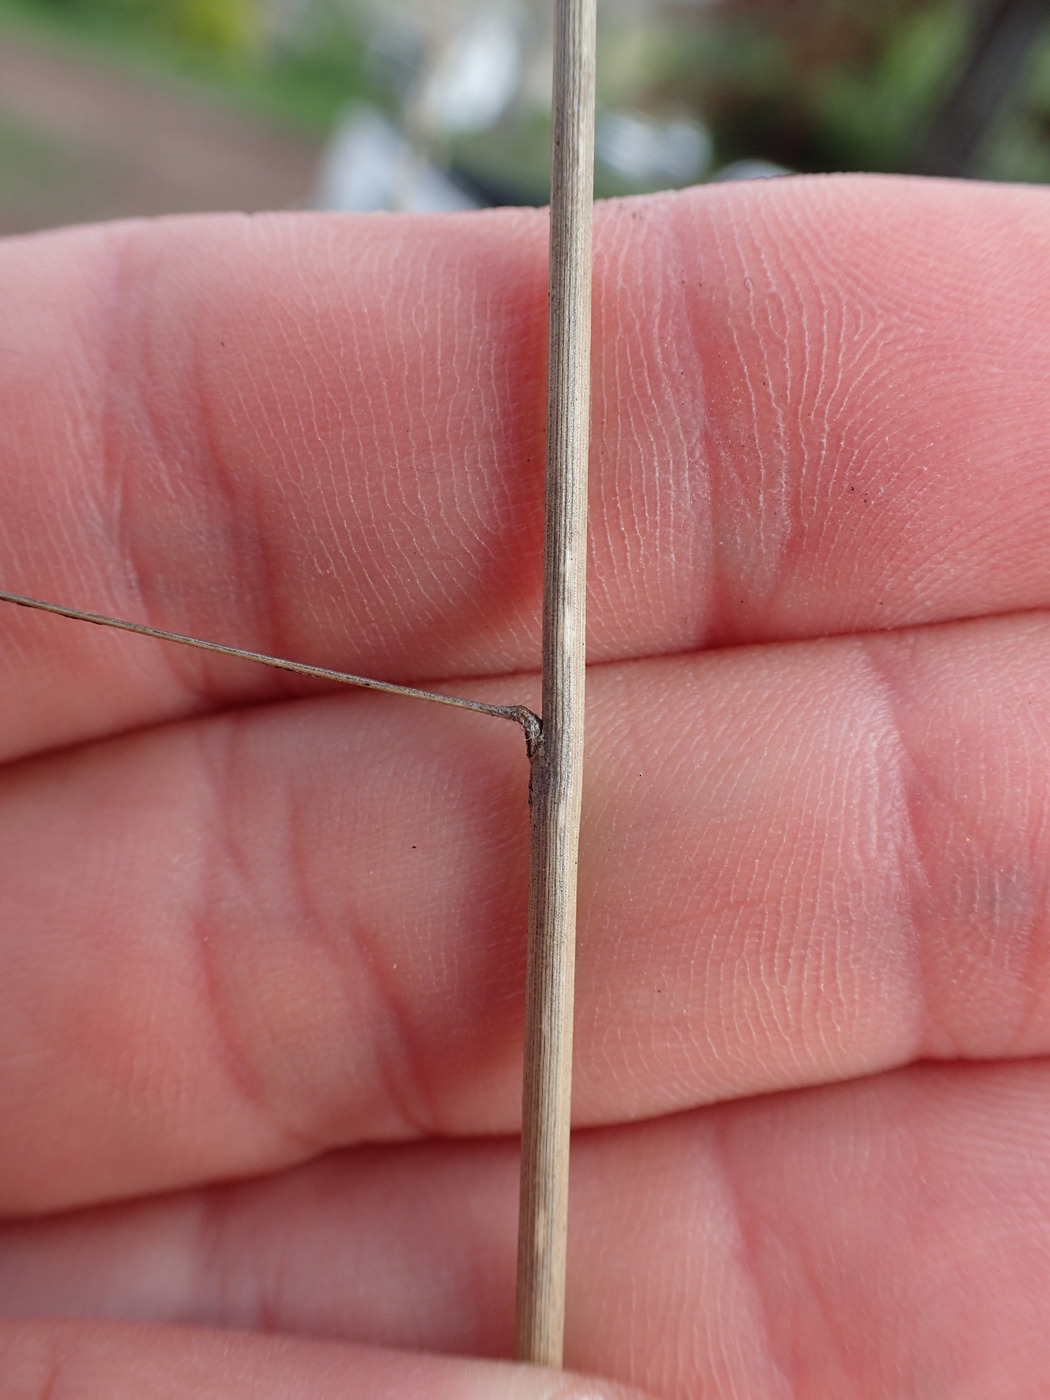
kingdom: Plantae
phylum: Tracheophyta
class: Liliopsida
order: Poales
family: Poaceae
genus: Tridens
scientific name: Tridens flavus
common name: Purpletop
